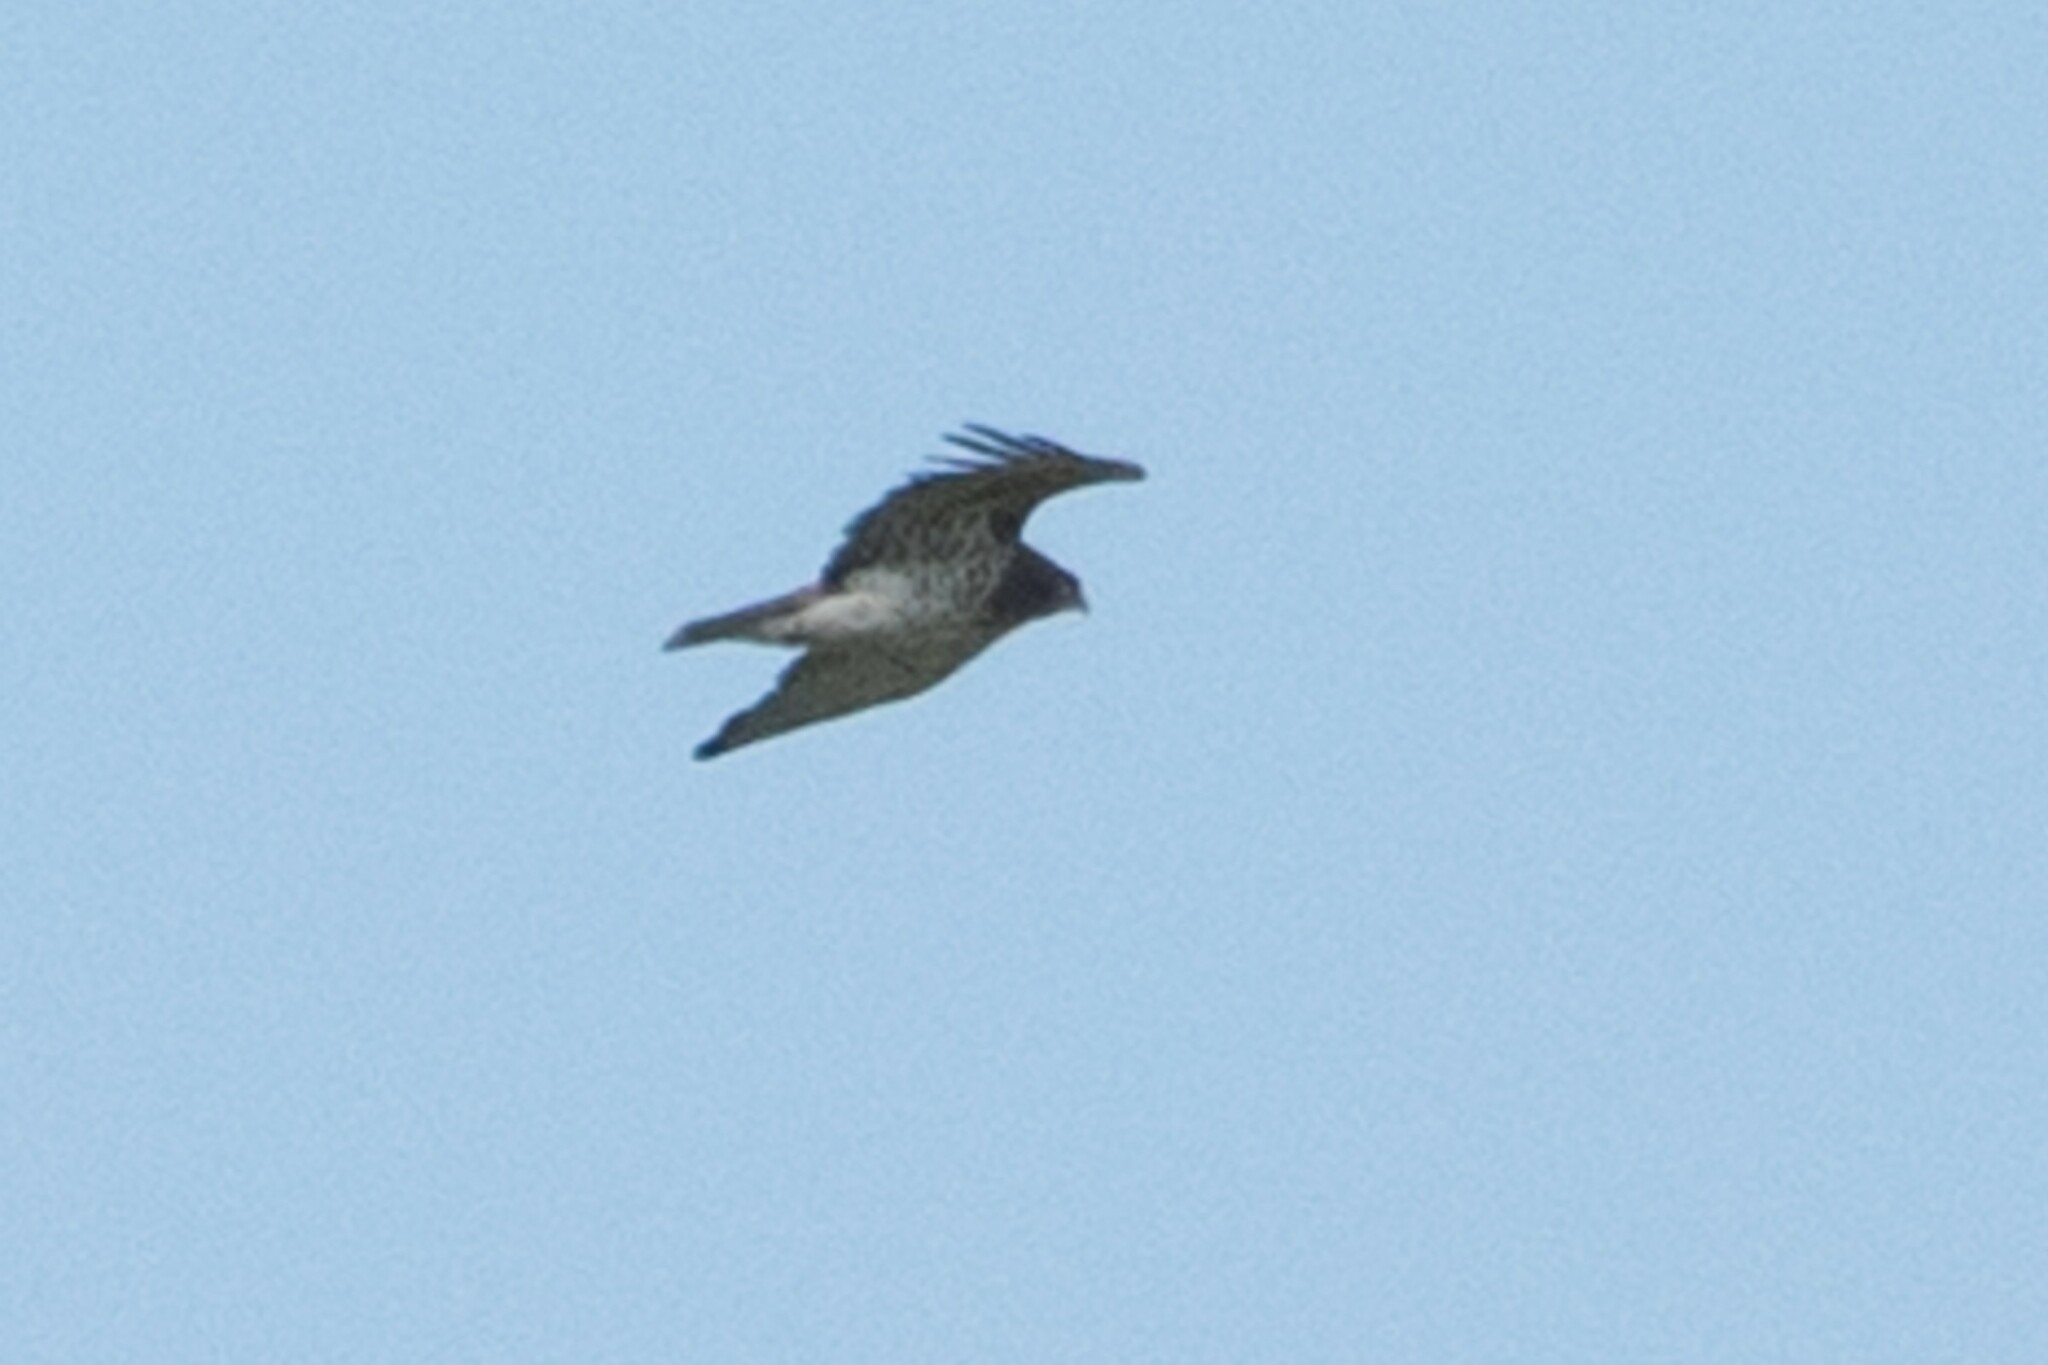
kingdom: Animalia
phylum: Chordata
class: Aves
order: Accipitriformes
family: Accipitridae
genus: Circaetus
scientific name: Circaetus gallicus
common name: Short-toed snake eagle
